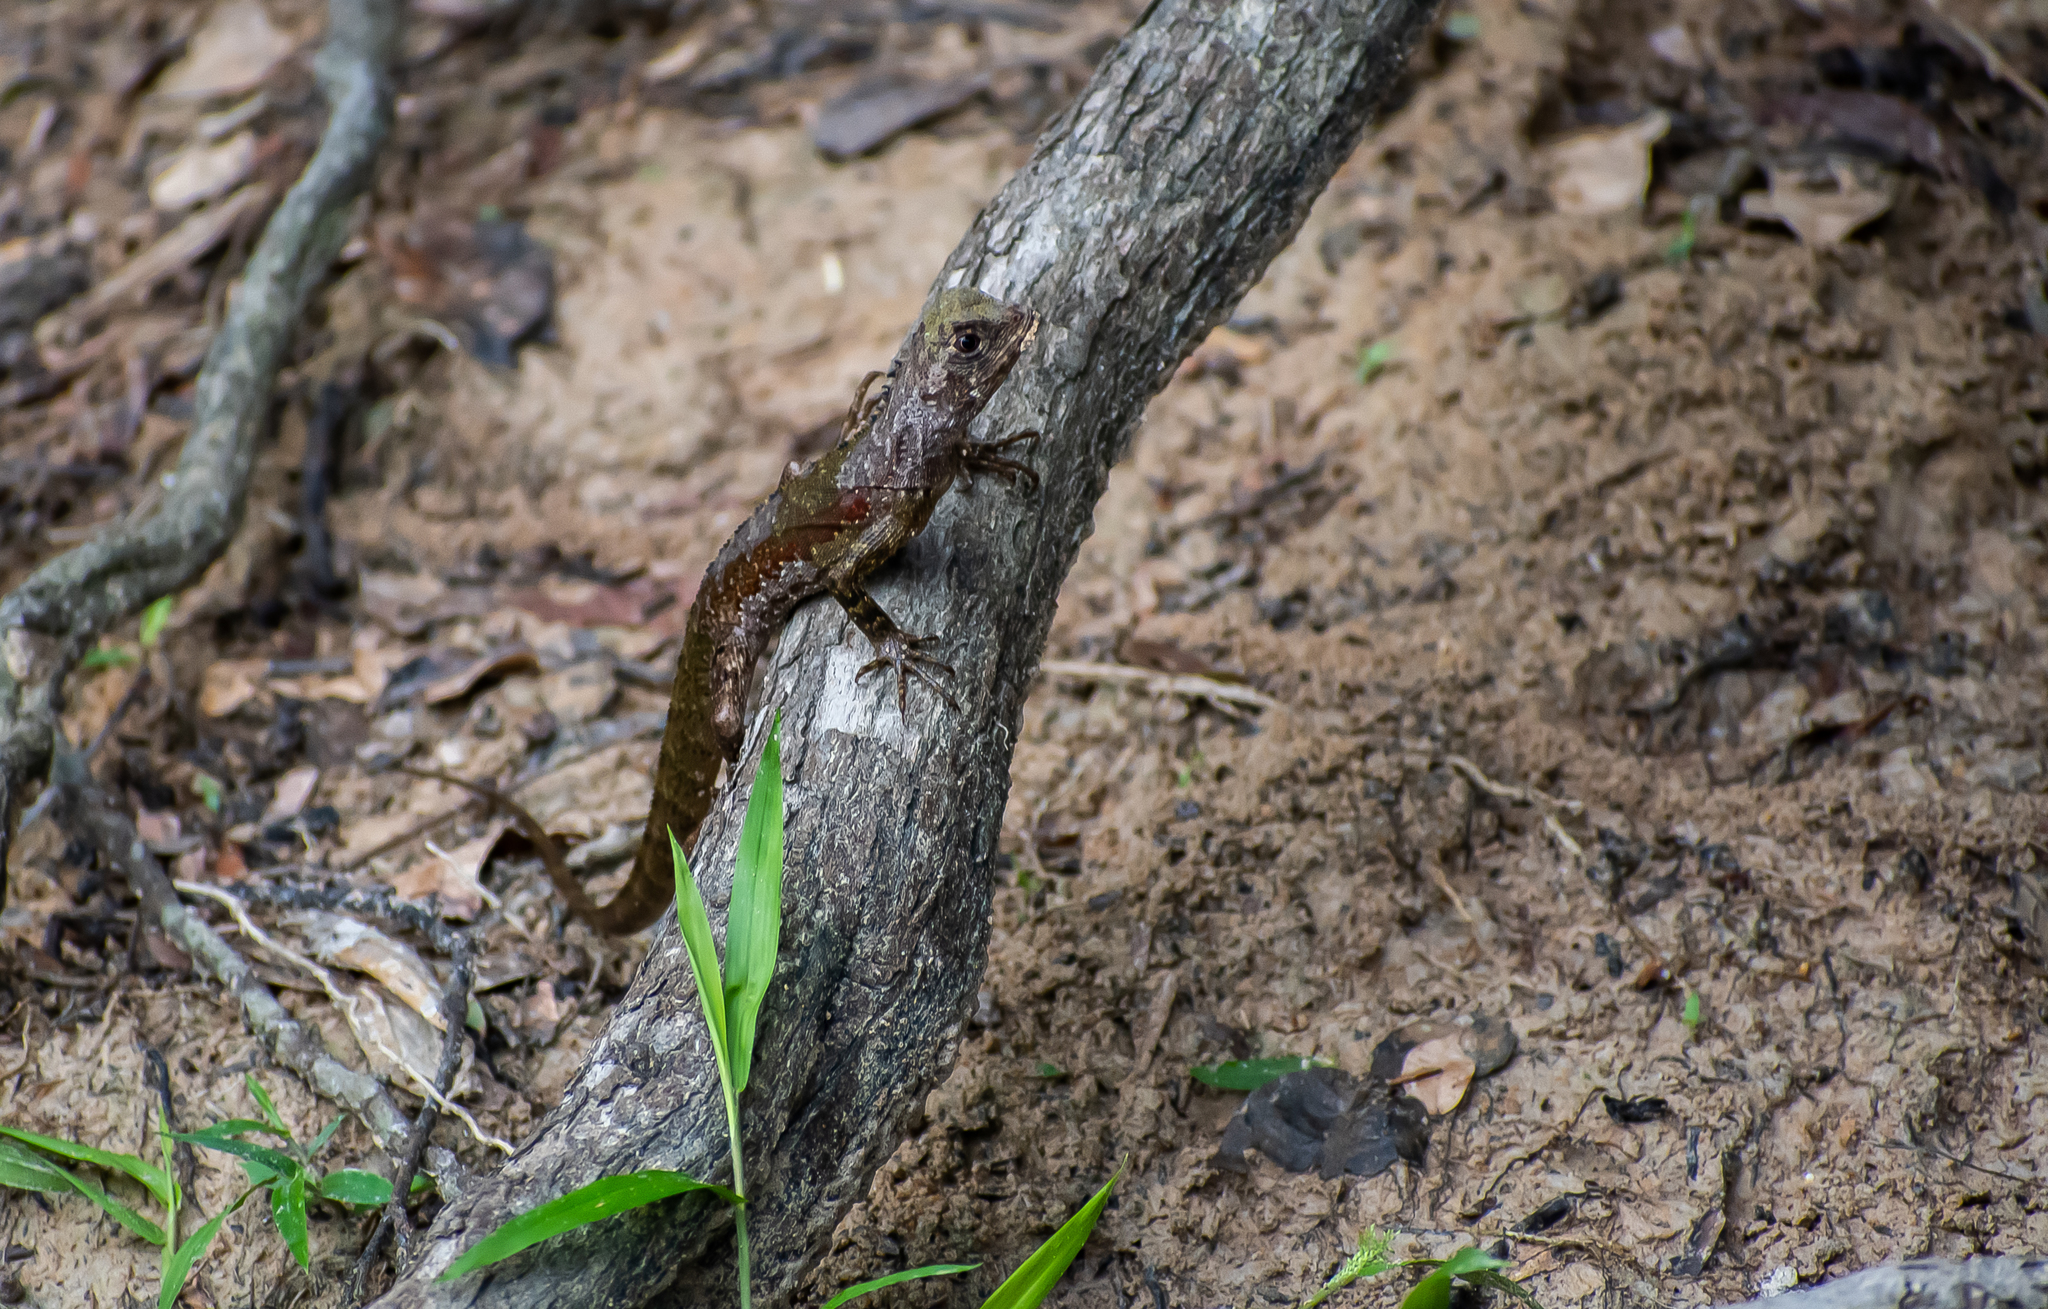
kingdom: Animalia
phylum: Chordata
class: Squamata
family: Tropiduridae
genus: Uranoscodon
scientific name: Uranoscodon superciliosus
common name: Mophead iguana
